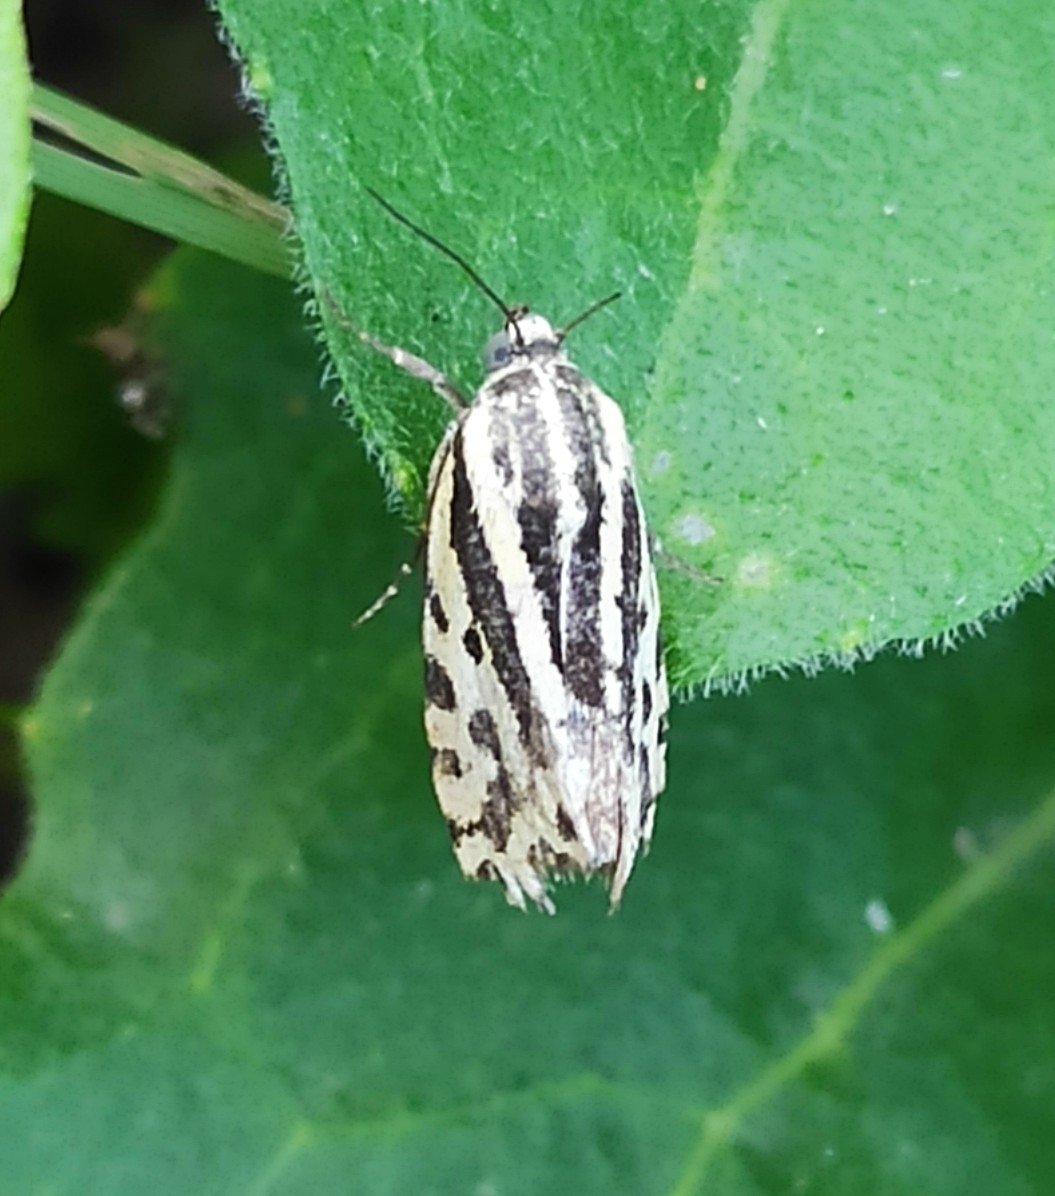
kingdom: Animalia
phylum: Arthropoda
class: Insecta
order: Lepidoptera
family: Noctuidae
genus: Acontia
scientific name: Acontia trabealis
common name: Spotted sulphur
